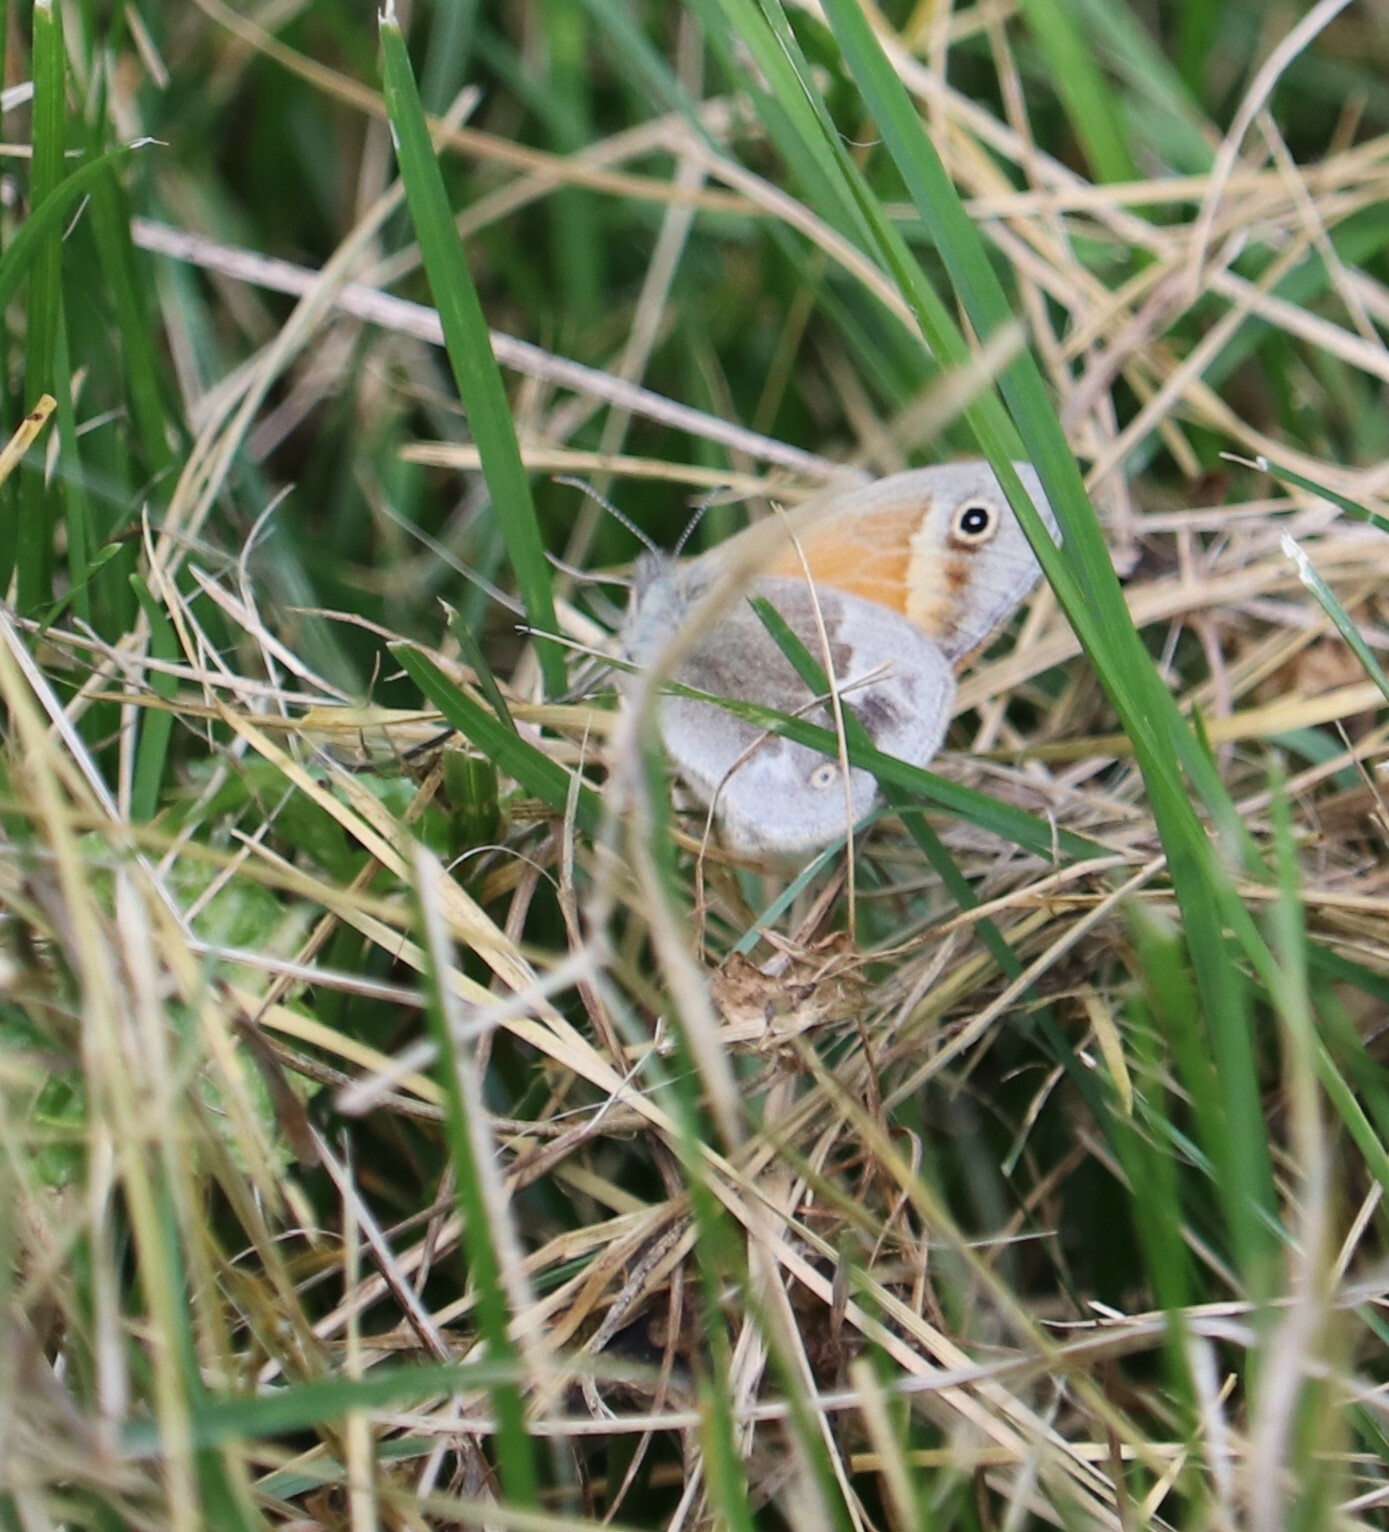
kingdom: Animalia
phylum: Arthropoda
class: Insecta
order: Lepidoptera
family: Nymphalidae
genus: Coenonympha
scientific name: Coenonympha california
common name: Common ringlet
